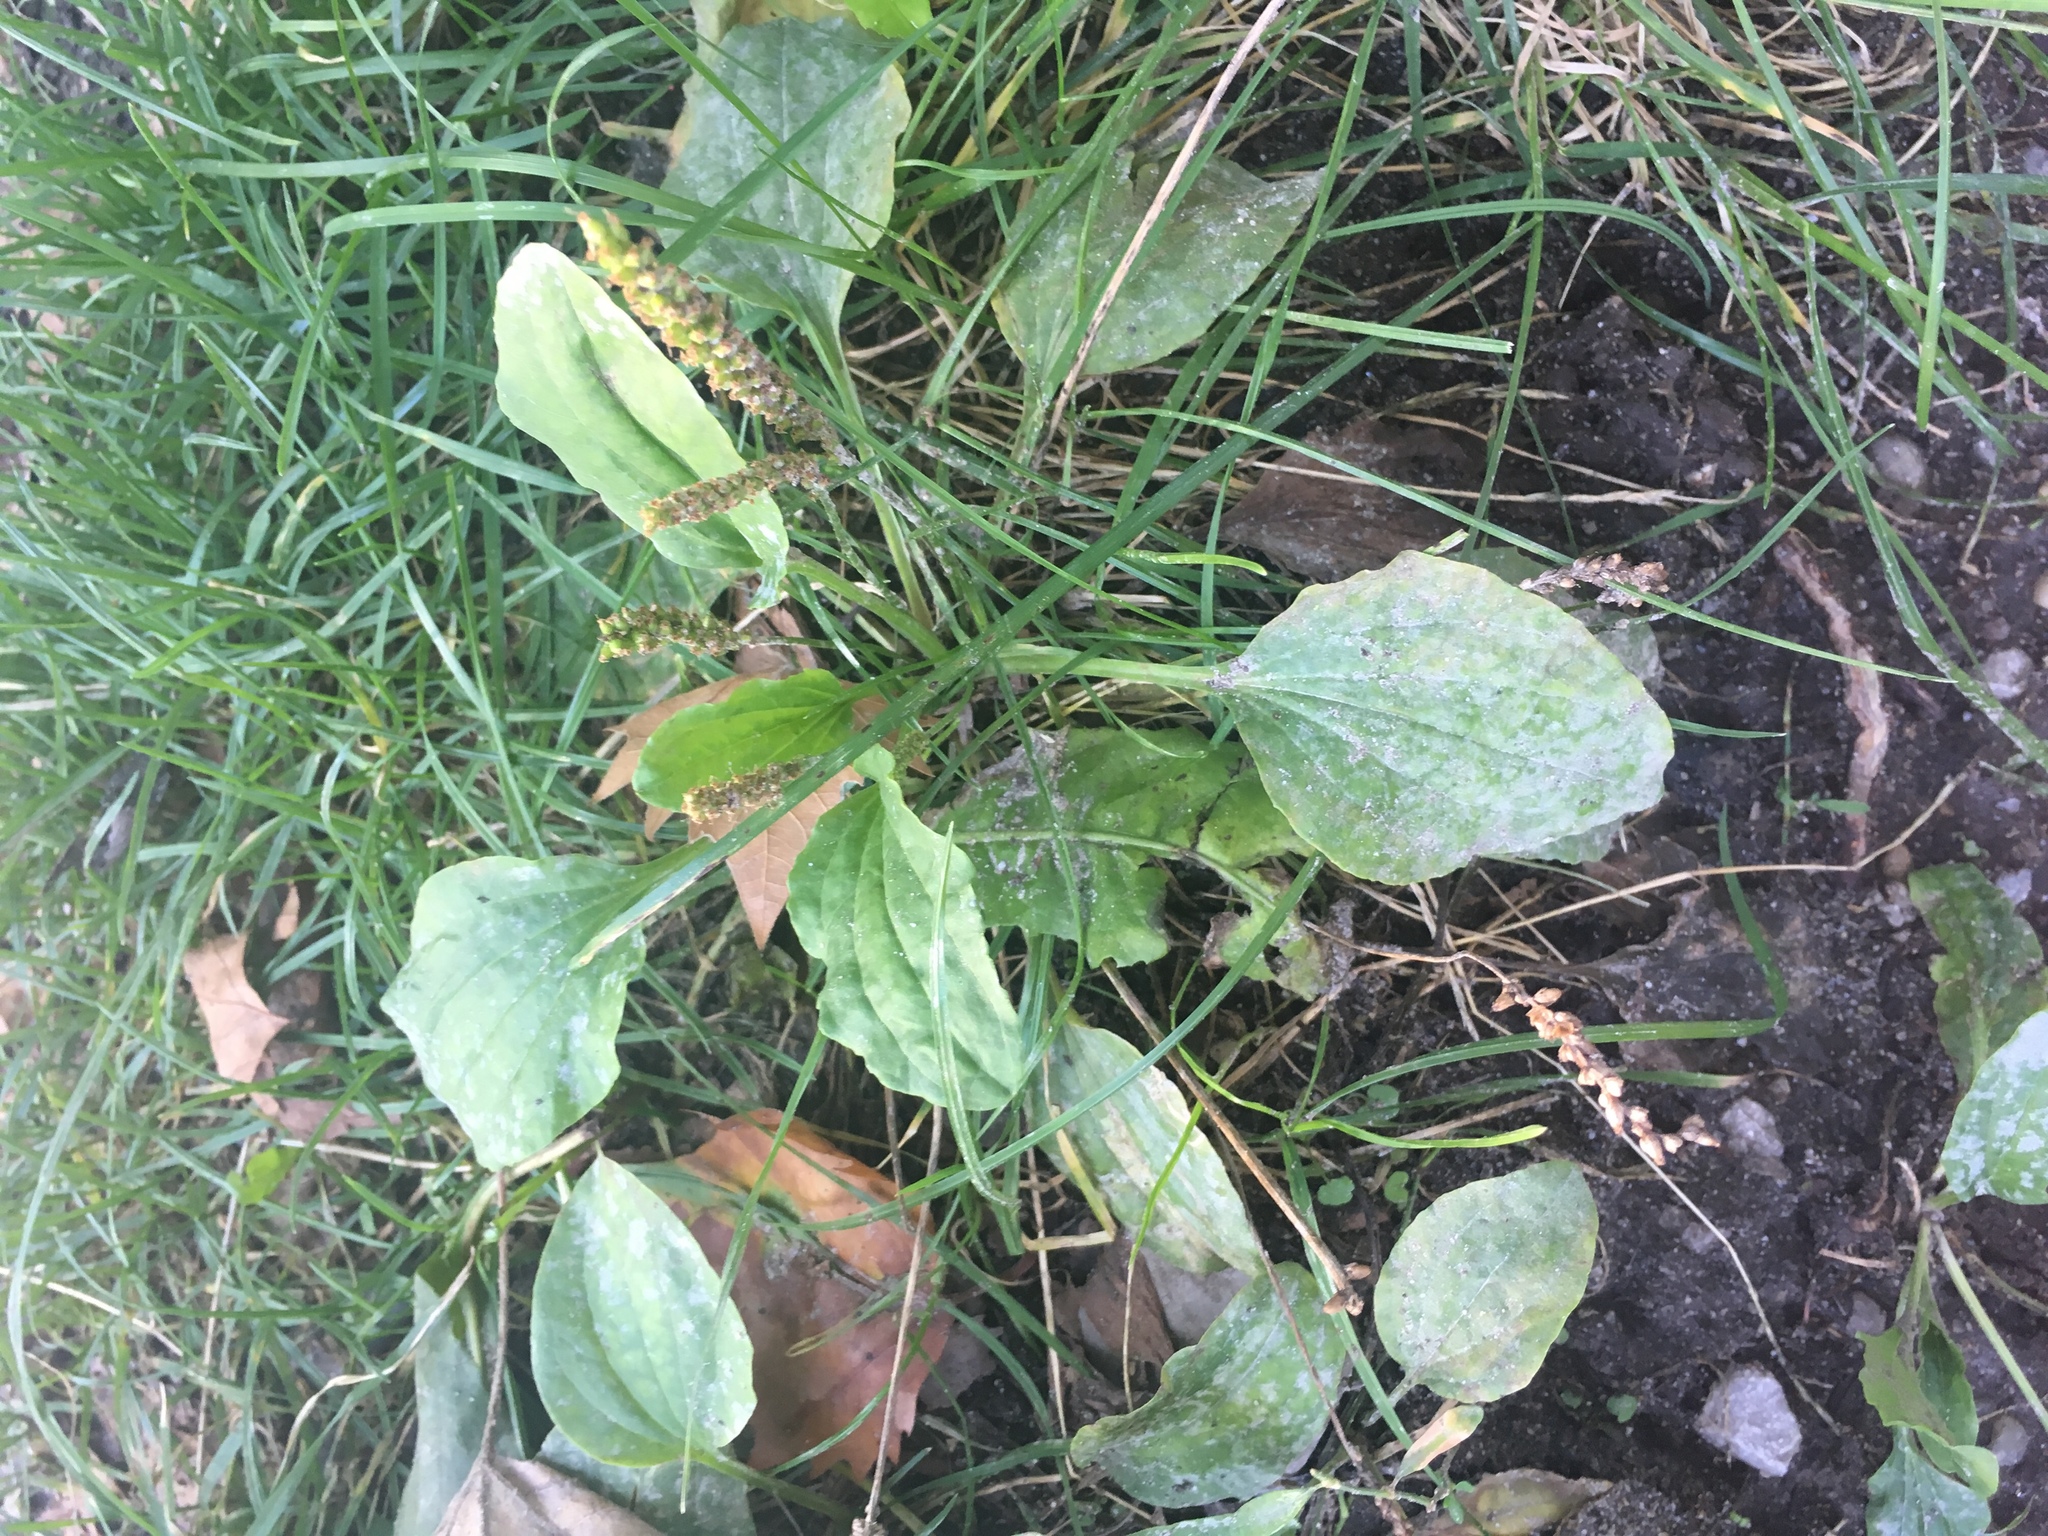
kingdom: Plantae
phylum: Tracheophyta
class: Magnoliopsida
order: Lamiales
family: Plantaginaceae
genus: Plantago
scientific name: Plantago major
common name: Common plantain
